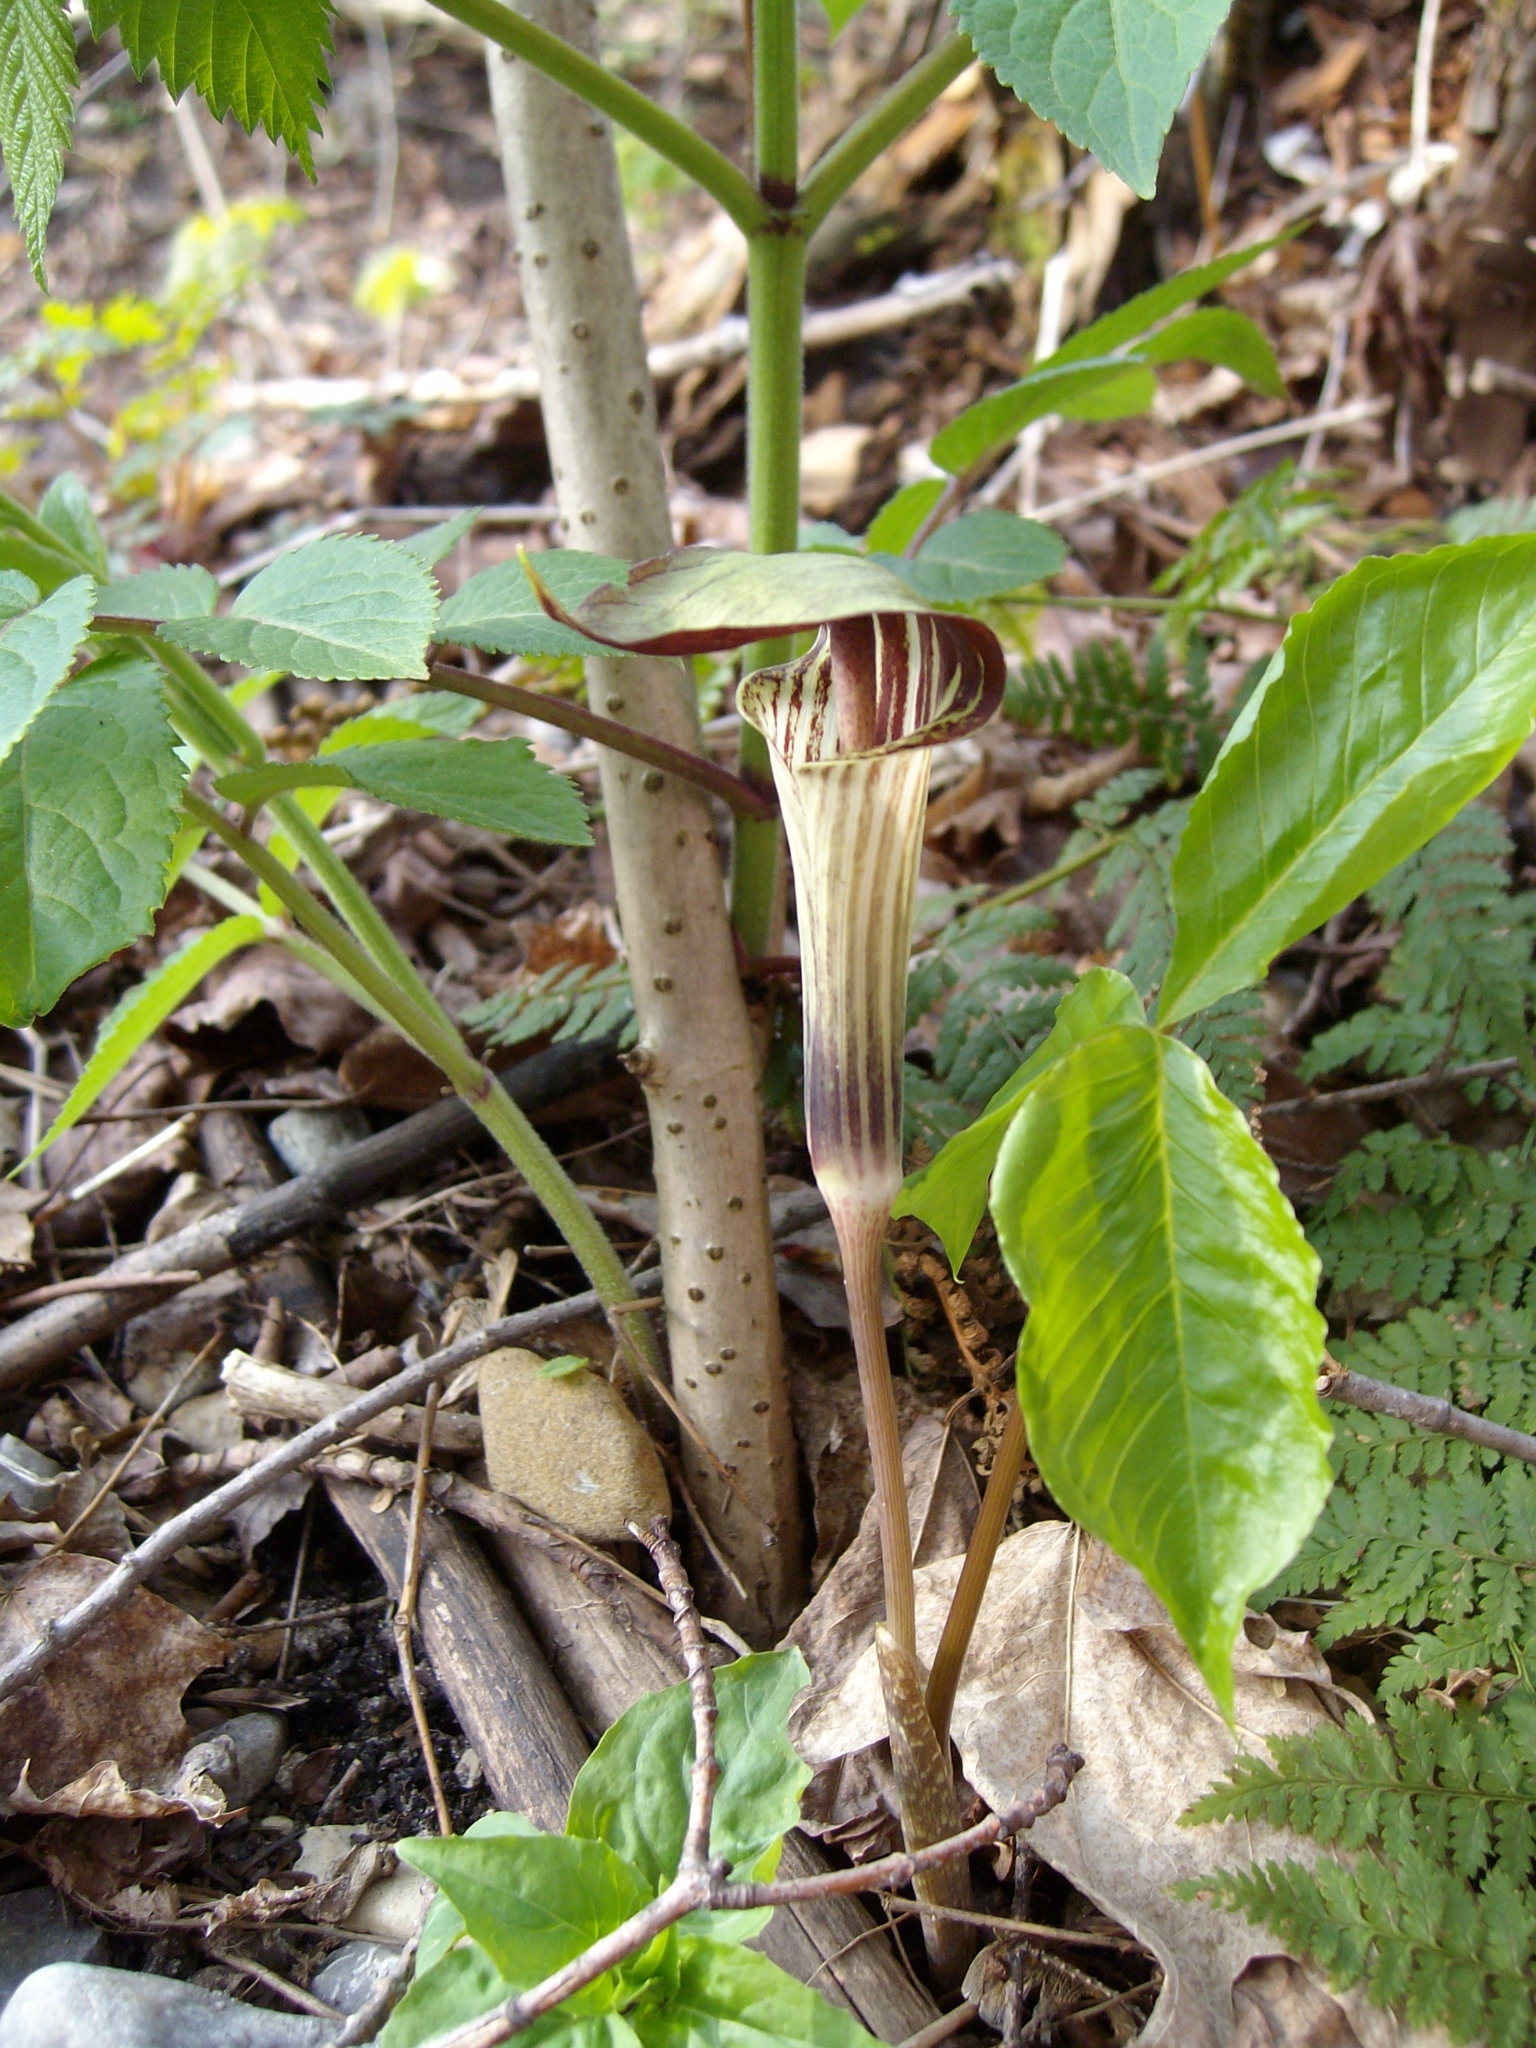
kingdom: Plantae
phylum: Tracheophyta
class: Liliopsida
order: Alismatales
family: Araceae
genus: Arisaema
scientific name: Arisaema triphyllum
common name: Jack-in-the-pulpit
